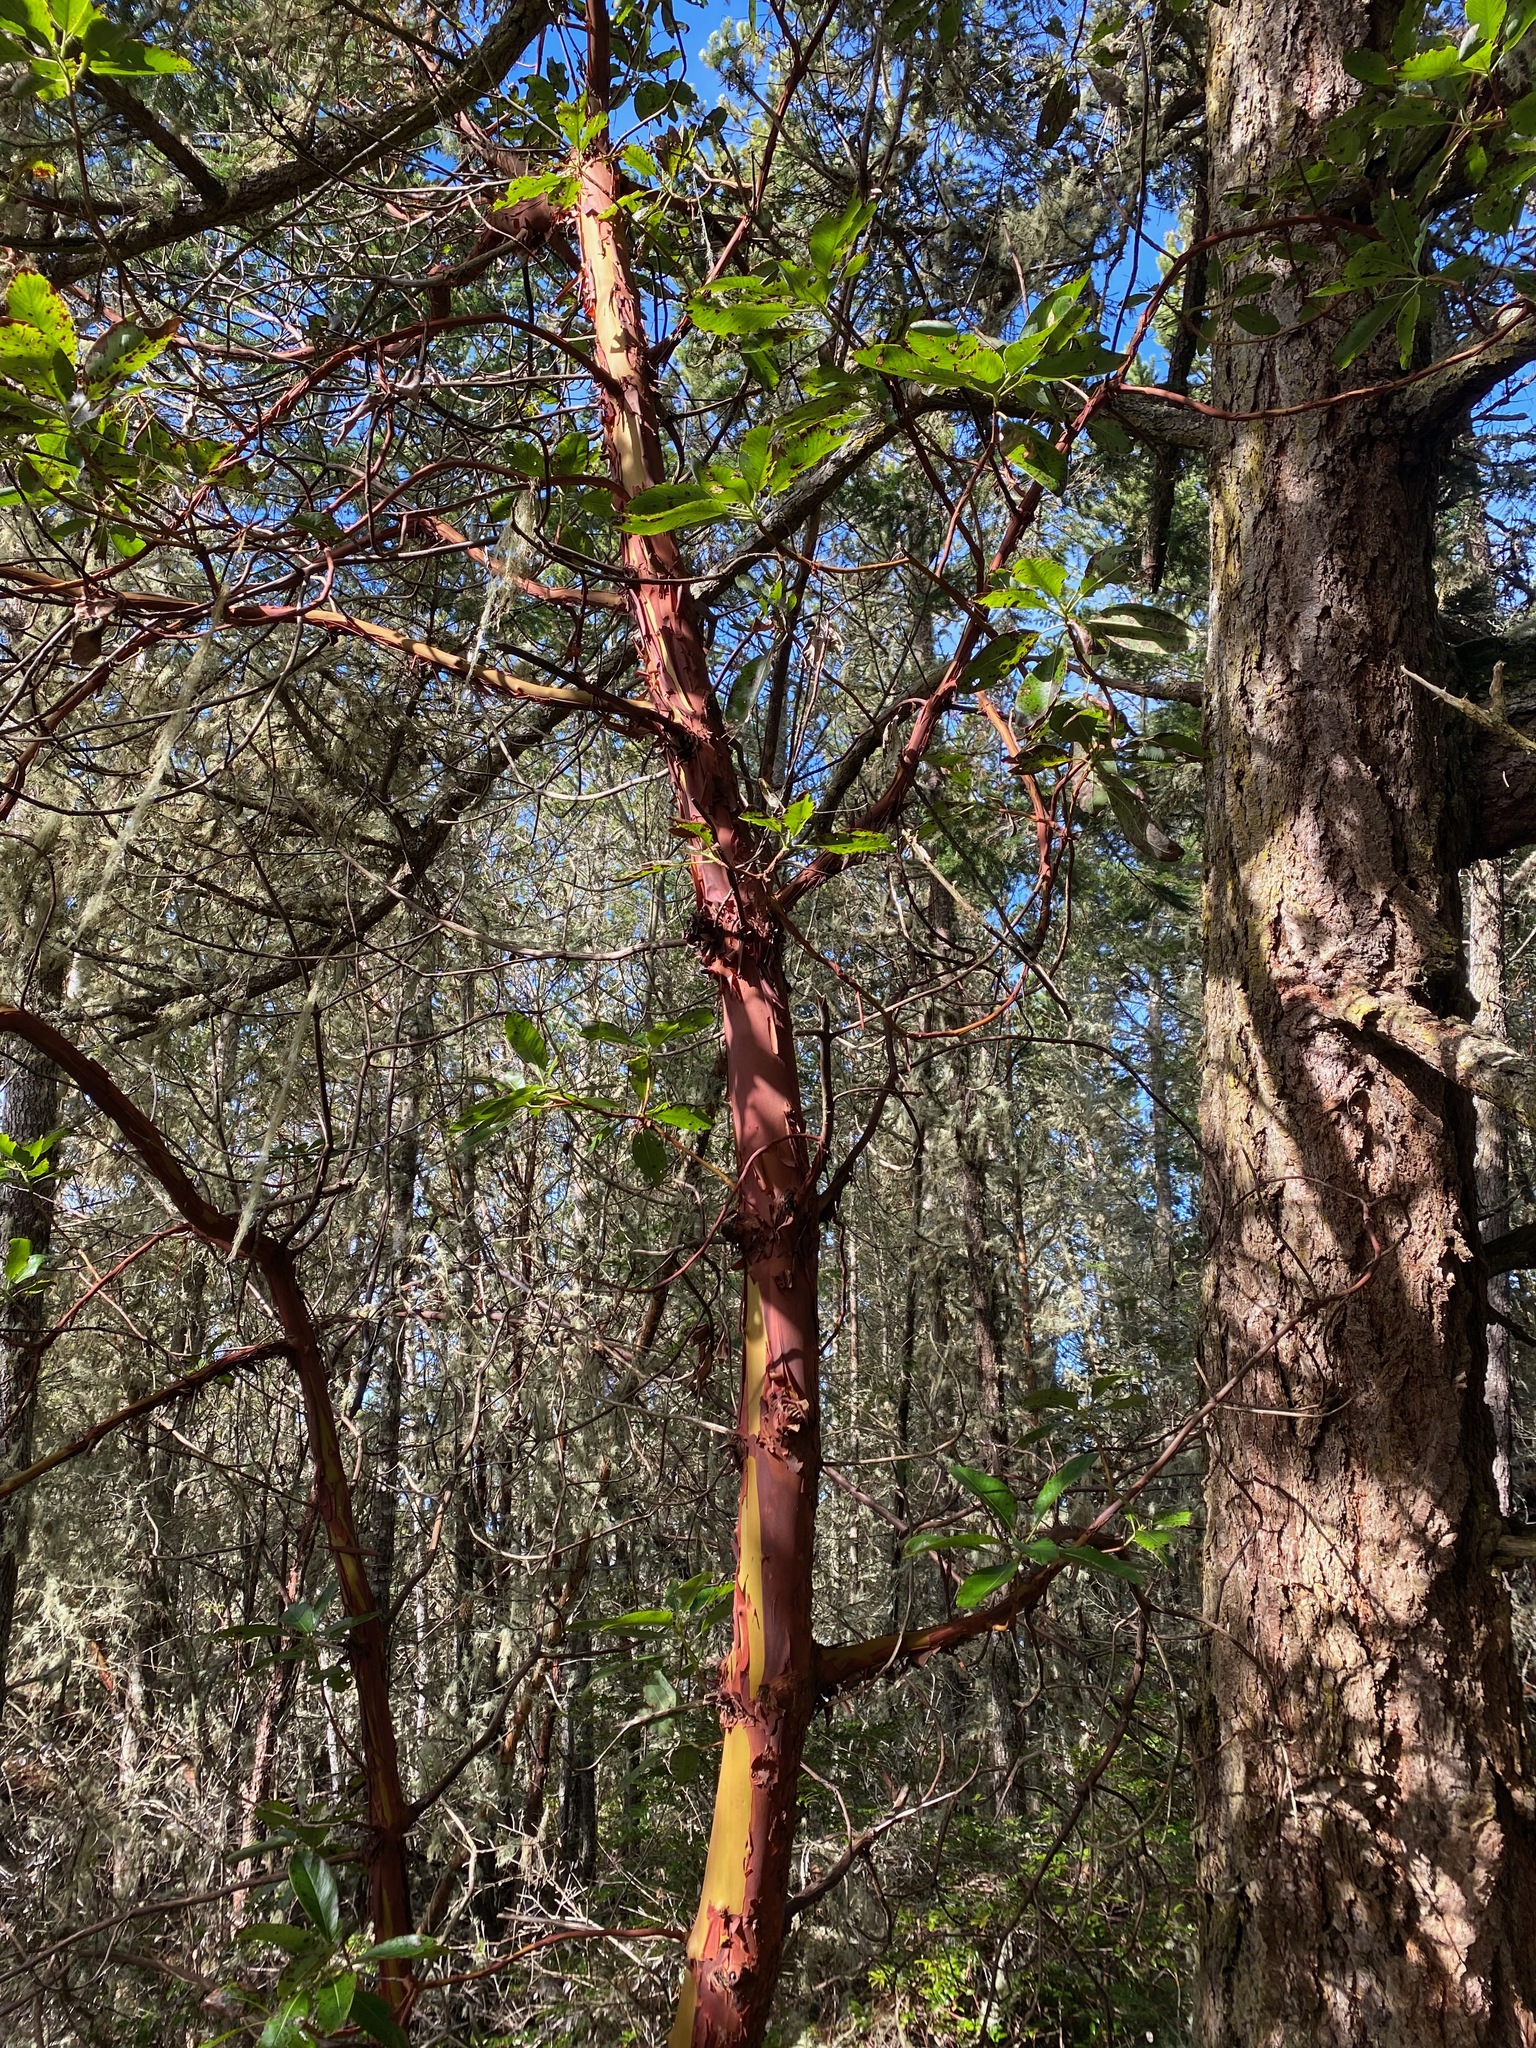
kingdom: Plantae
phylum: Tracheophyta
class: Magnoliopsida
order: Ericales
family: Ericaceae
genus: Arbutus
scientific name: Arbutus menziesii
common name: Pacific madrone
